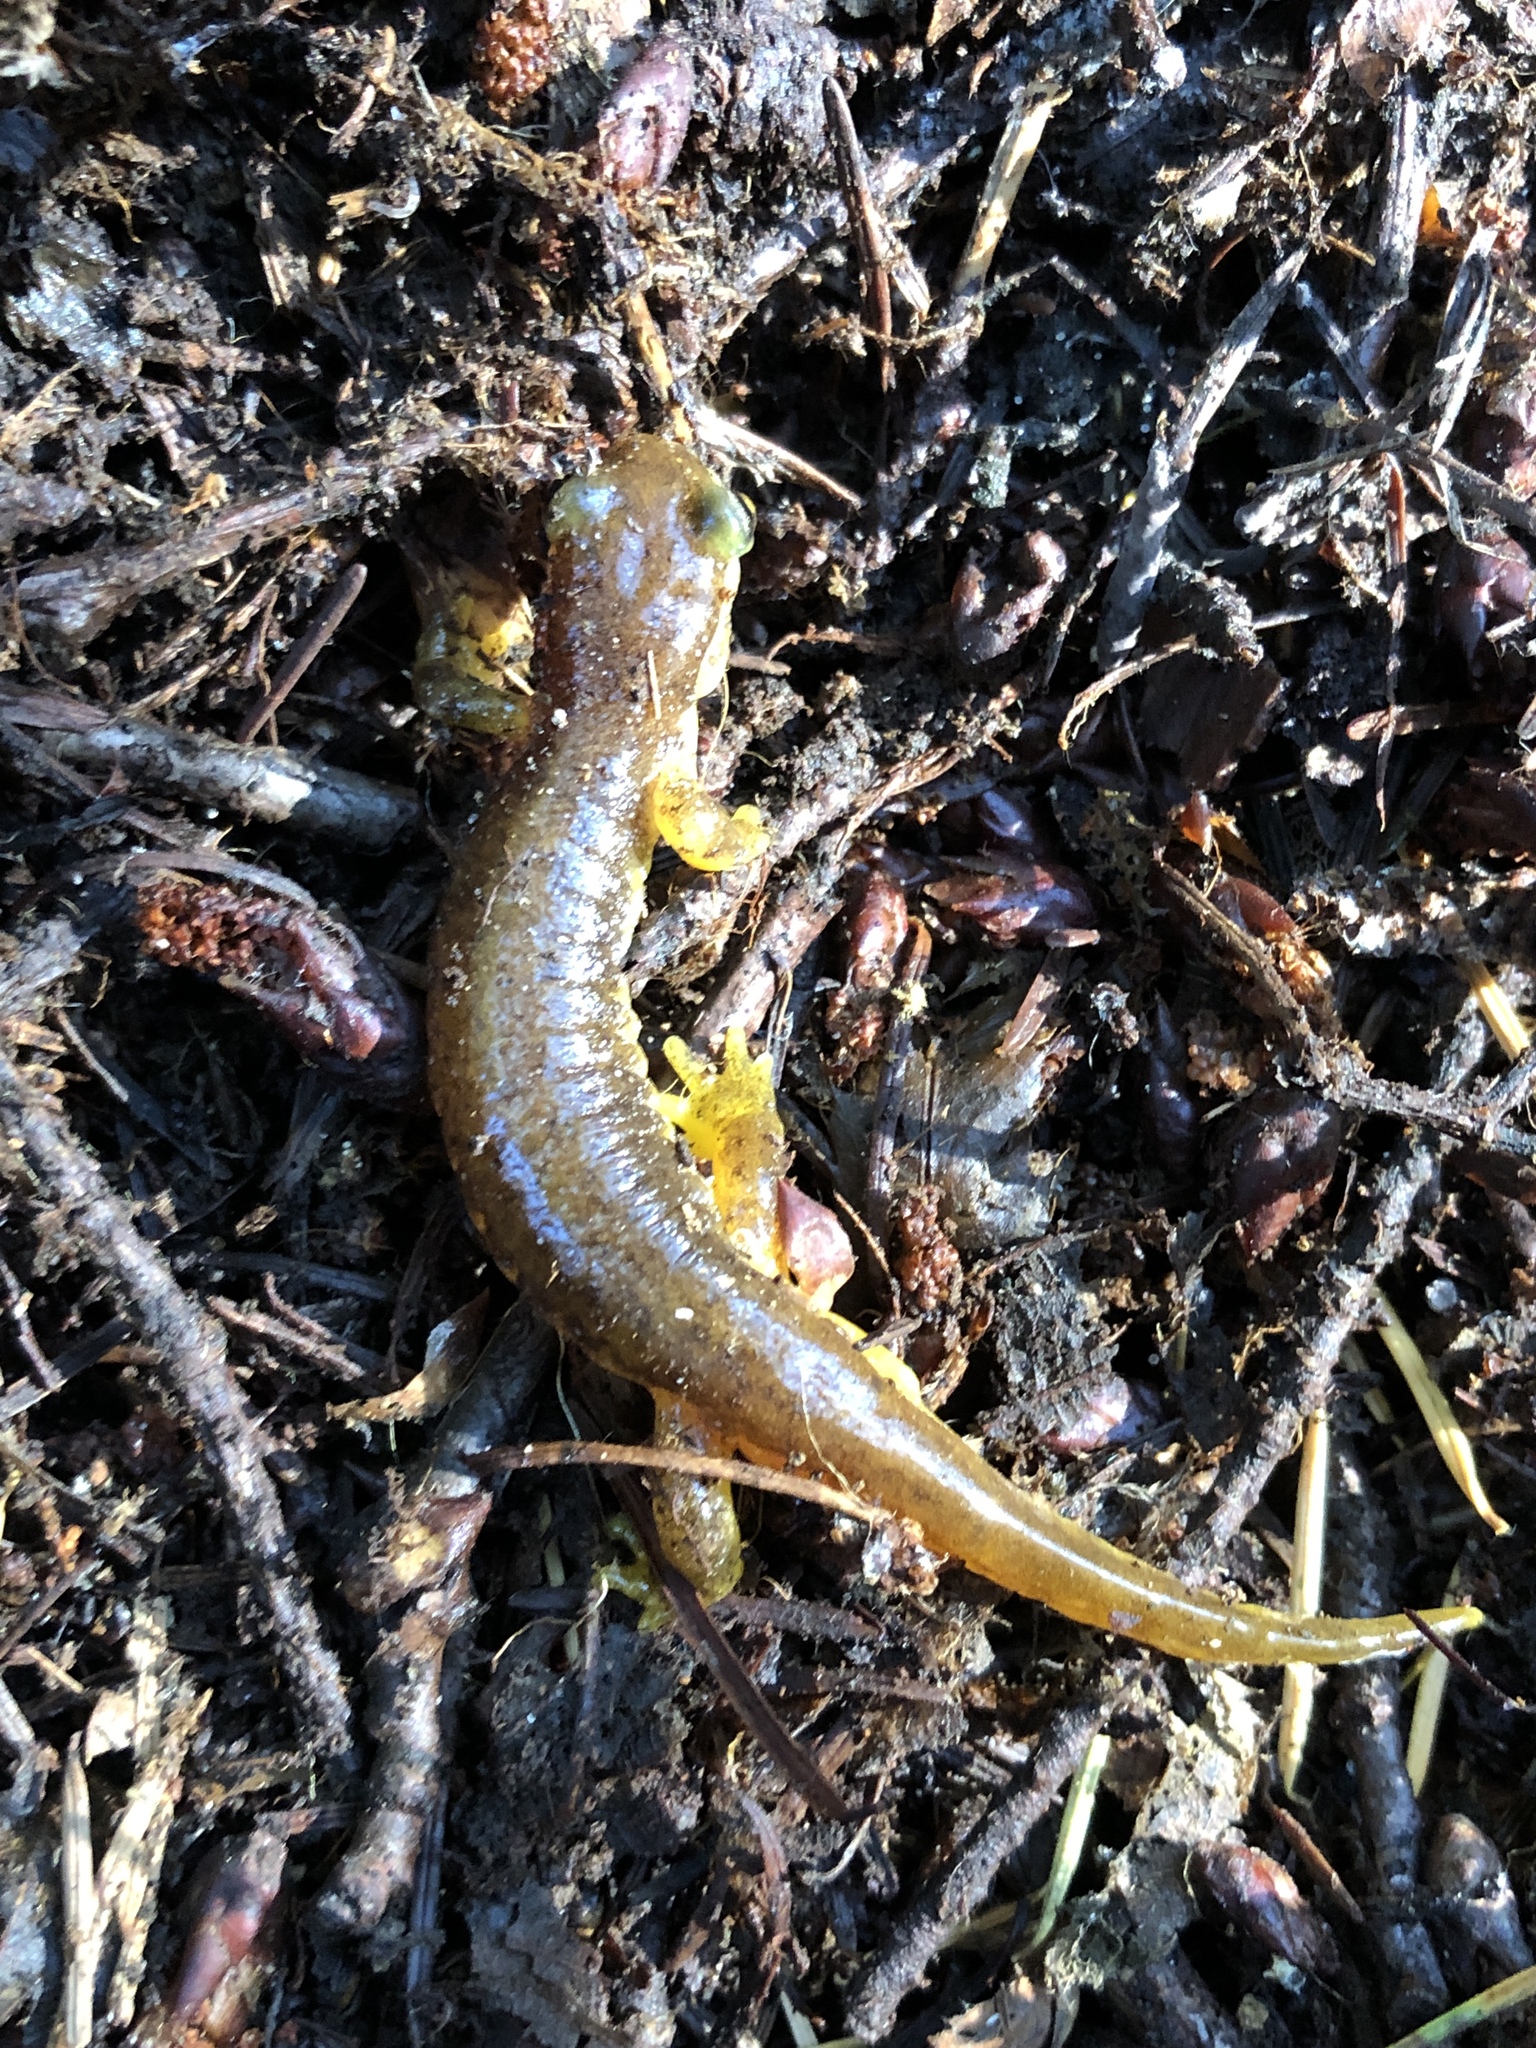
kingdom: Animalia
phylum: Chordata
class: Amphibia
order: Caudata
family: Rhyacotritonidae
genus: Rhyacotriton
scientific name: Rhyacotriton variegatus
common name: Southern torrent salamander
